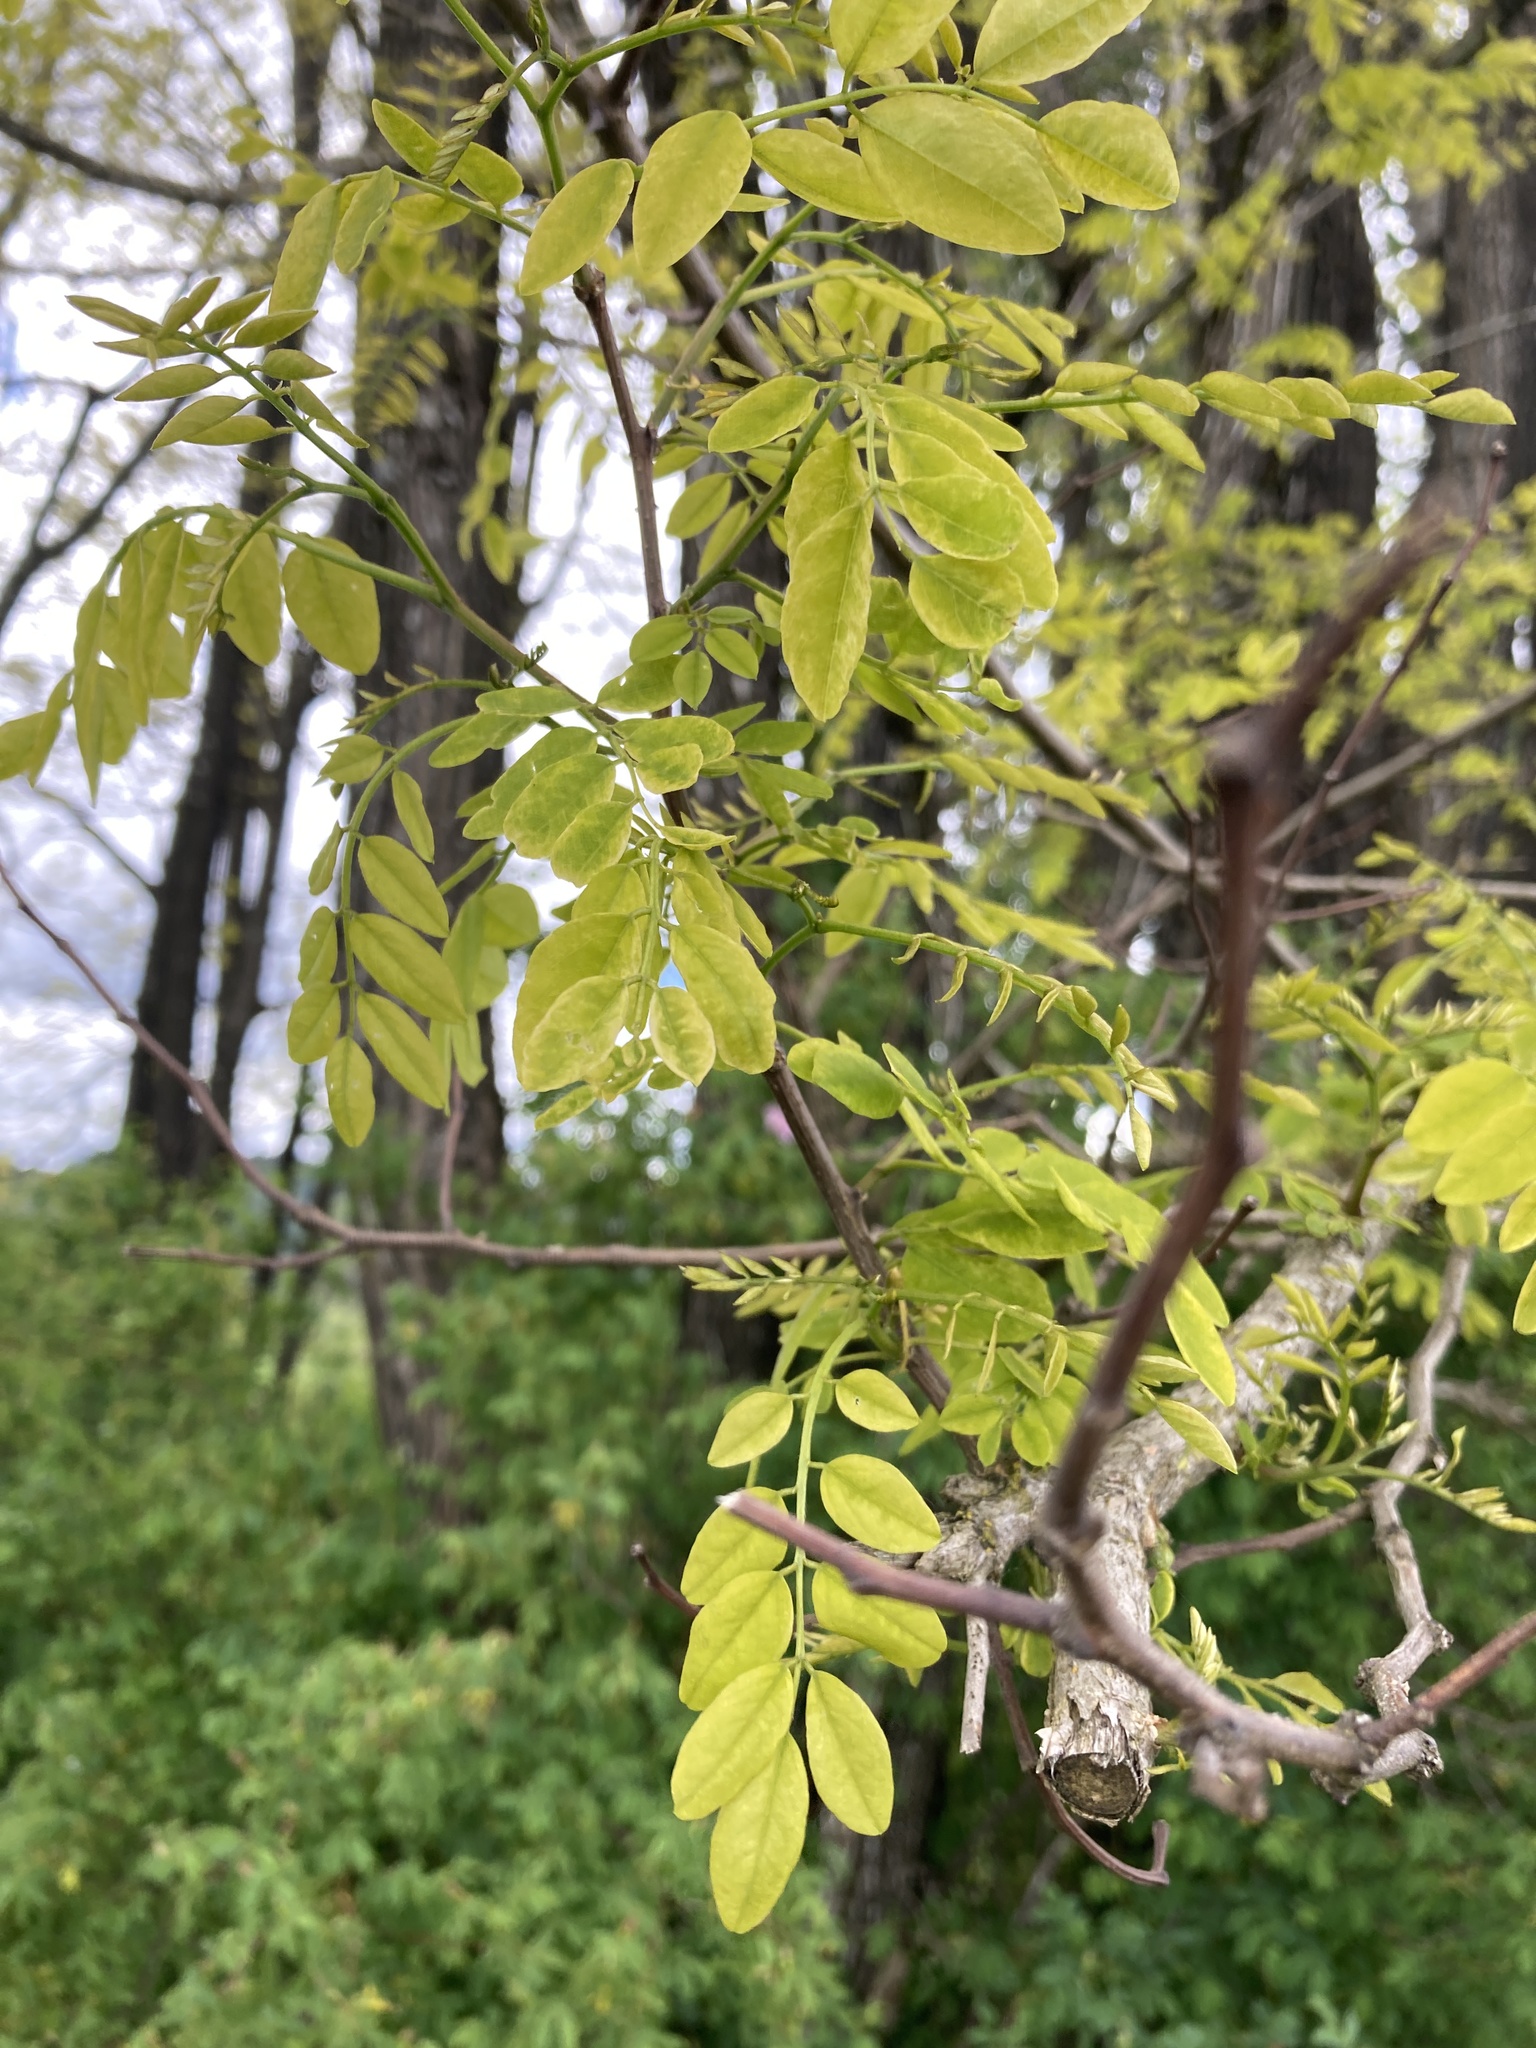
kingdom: Plantae
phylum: Tracheophyta
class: Magnoliopsida
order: Fabales
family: Fabaceae
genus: Robinia
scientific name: Robinia pseudoacacia
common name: Black locust
